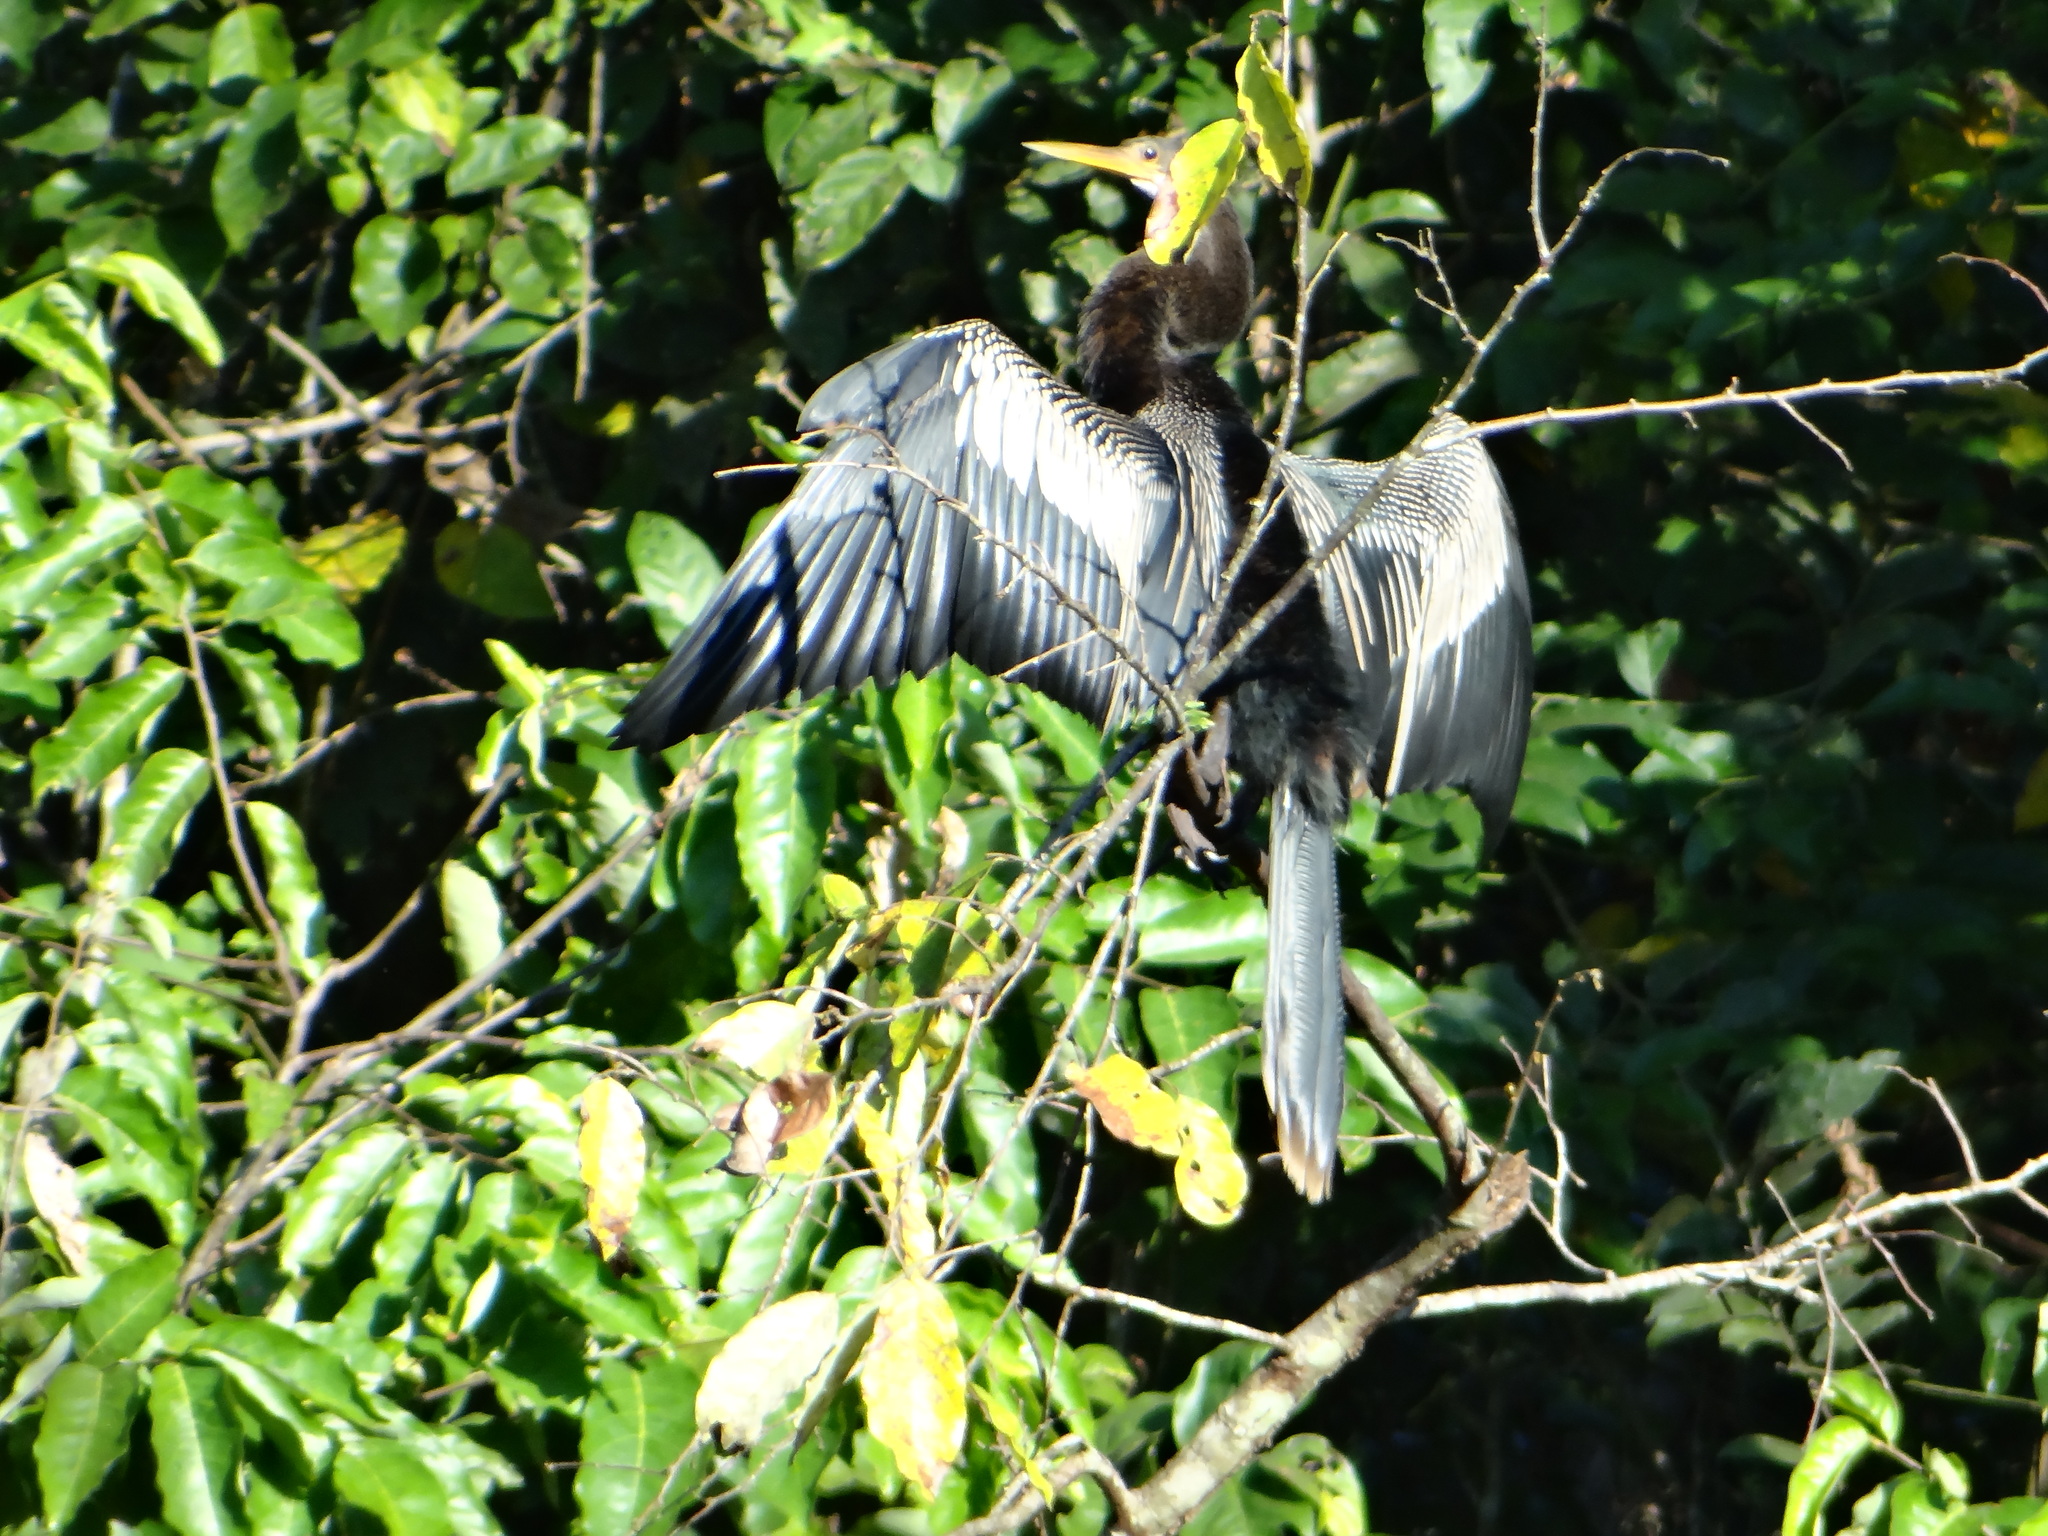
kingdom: Animalia
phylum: Chordata
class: Aves
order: Suliformes
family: Anhingidae
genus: Anhinga
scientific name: Anhinga anhinga
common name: Anhinga
